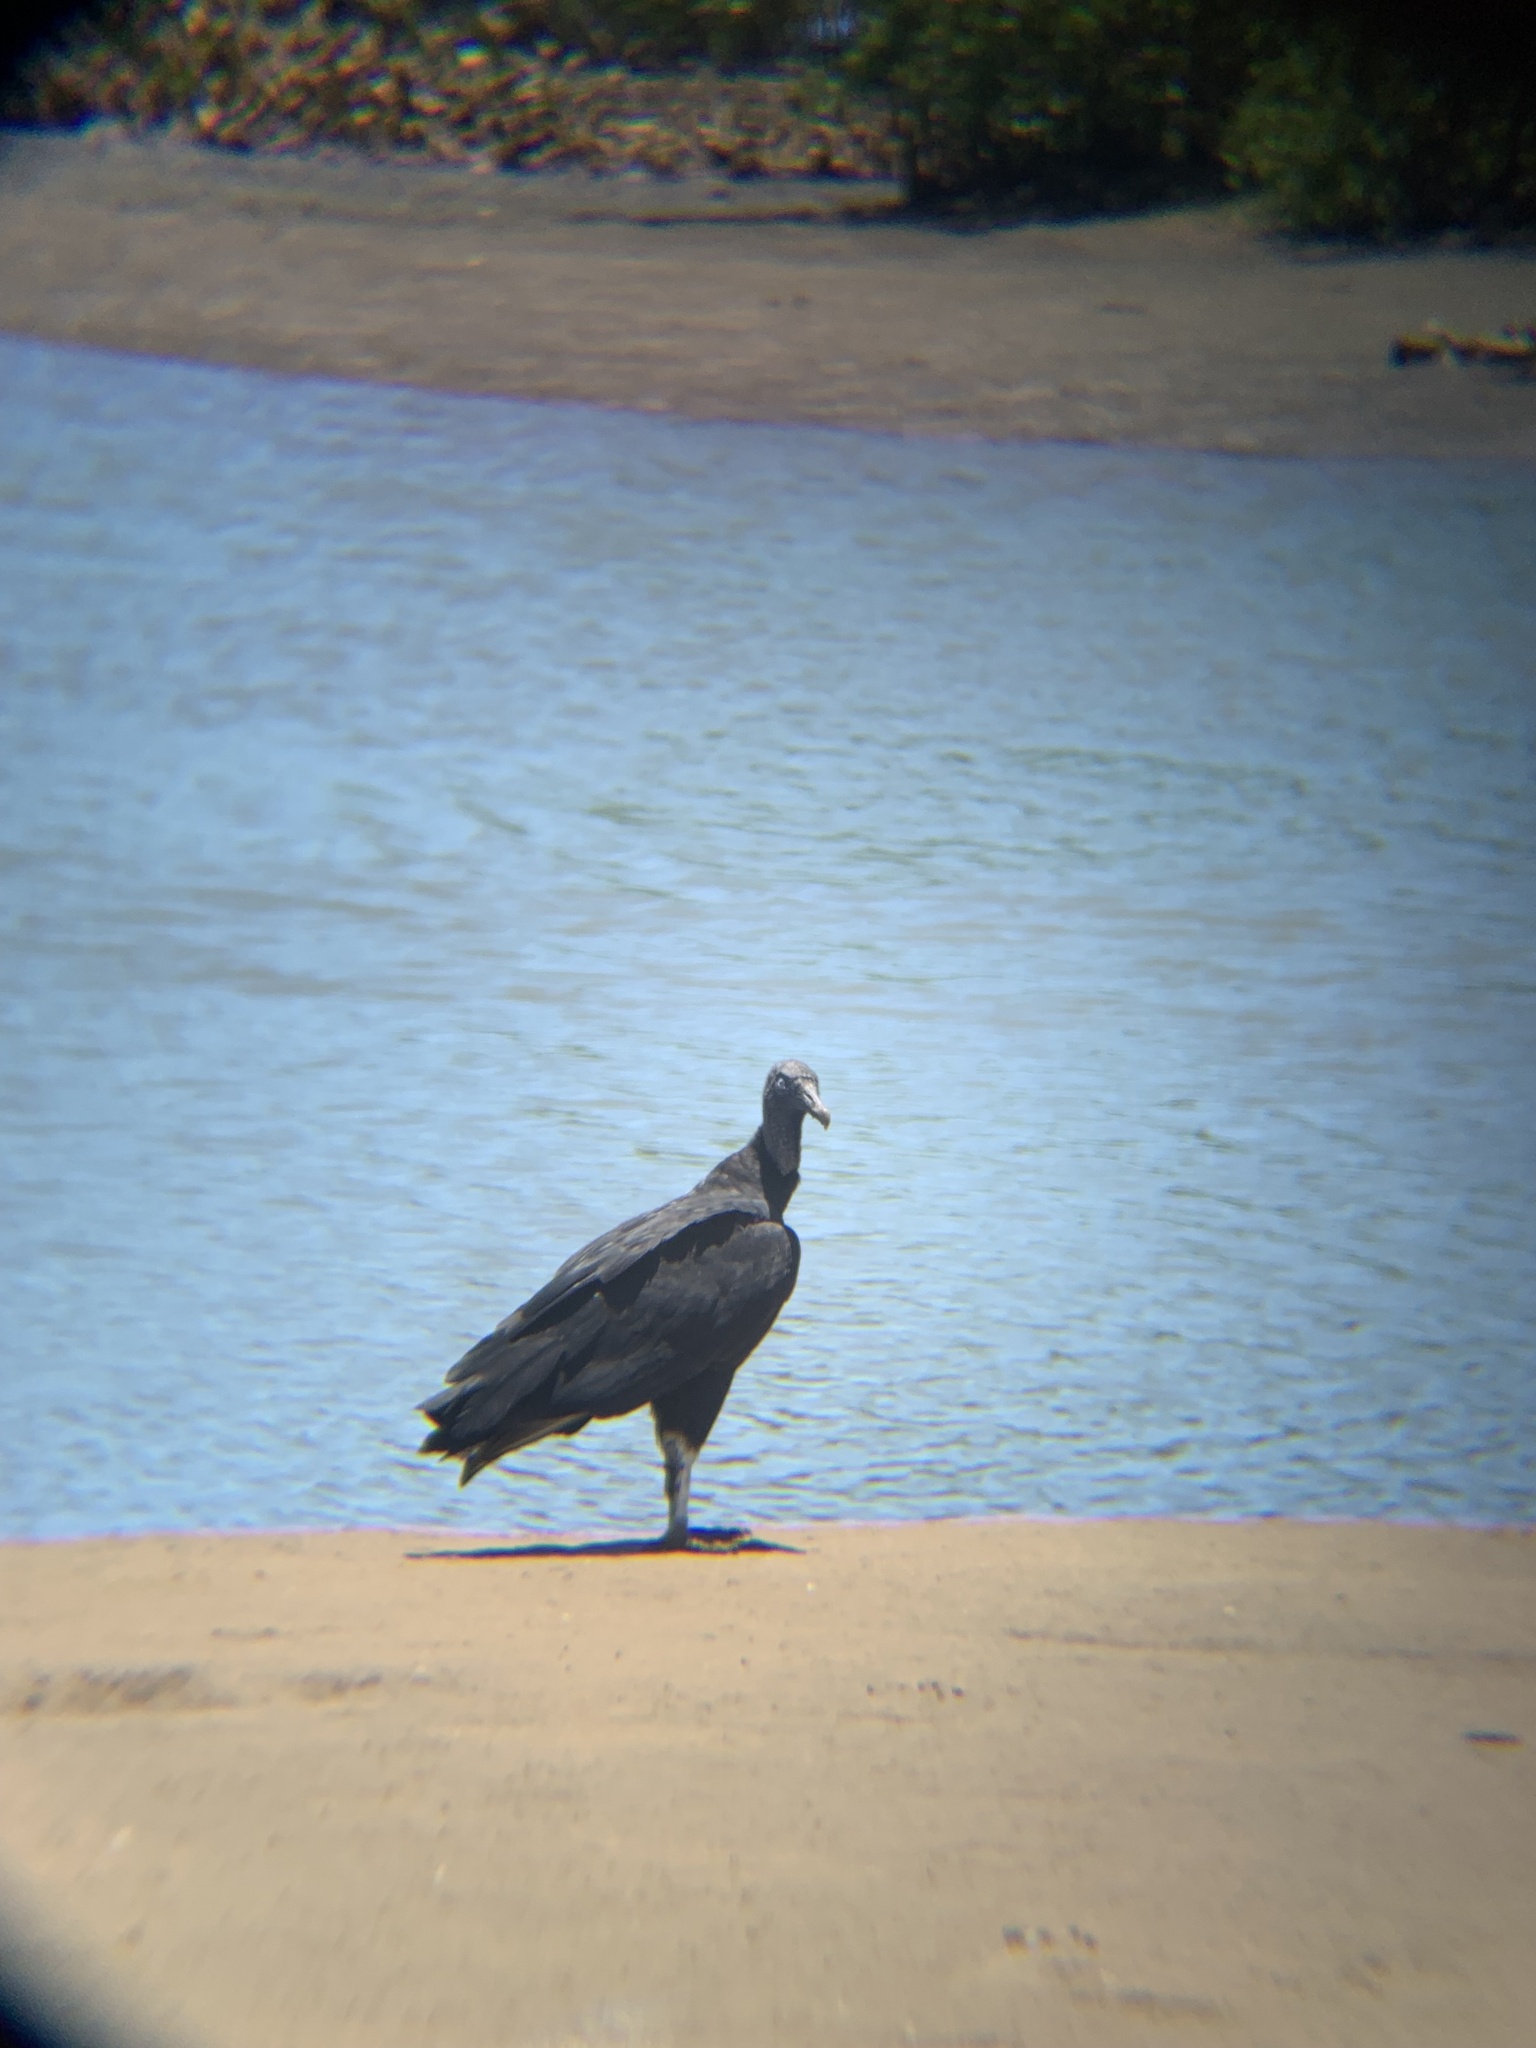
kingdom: Animalia
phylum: Chordata
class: Aves
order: Accipitriformes
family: Cathartidae
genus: Coragyps
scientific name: Coragyps atratus
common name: Black vulture
